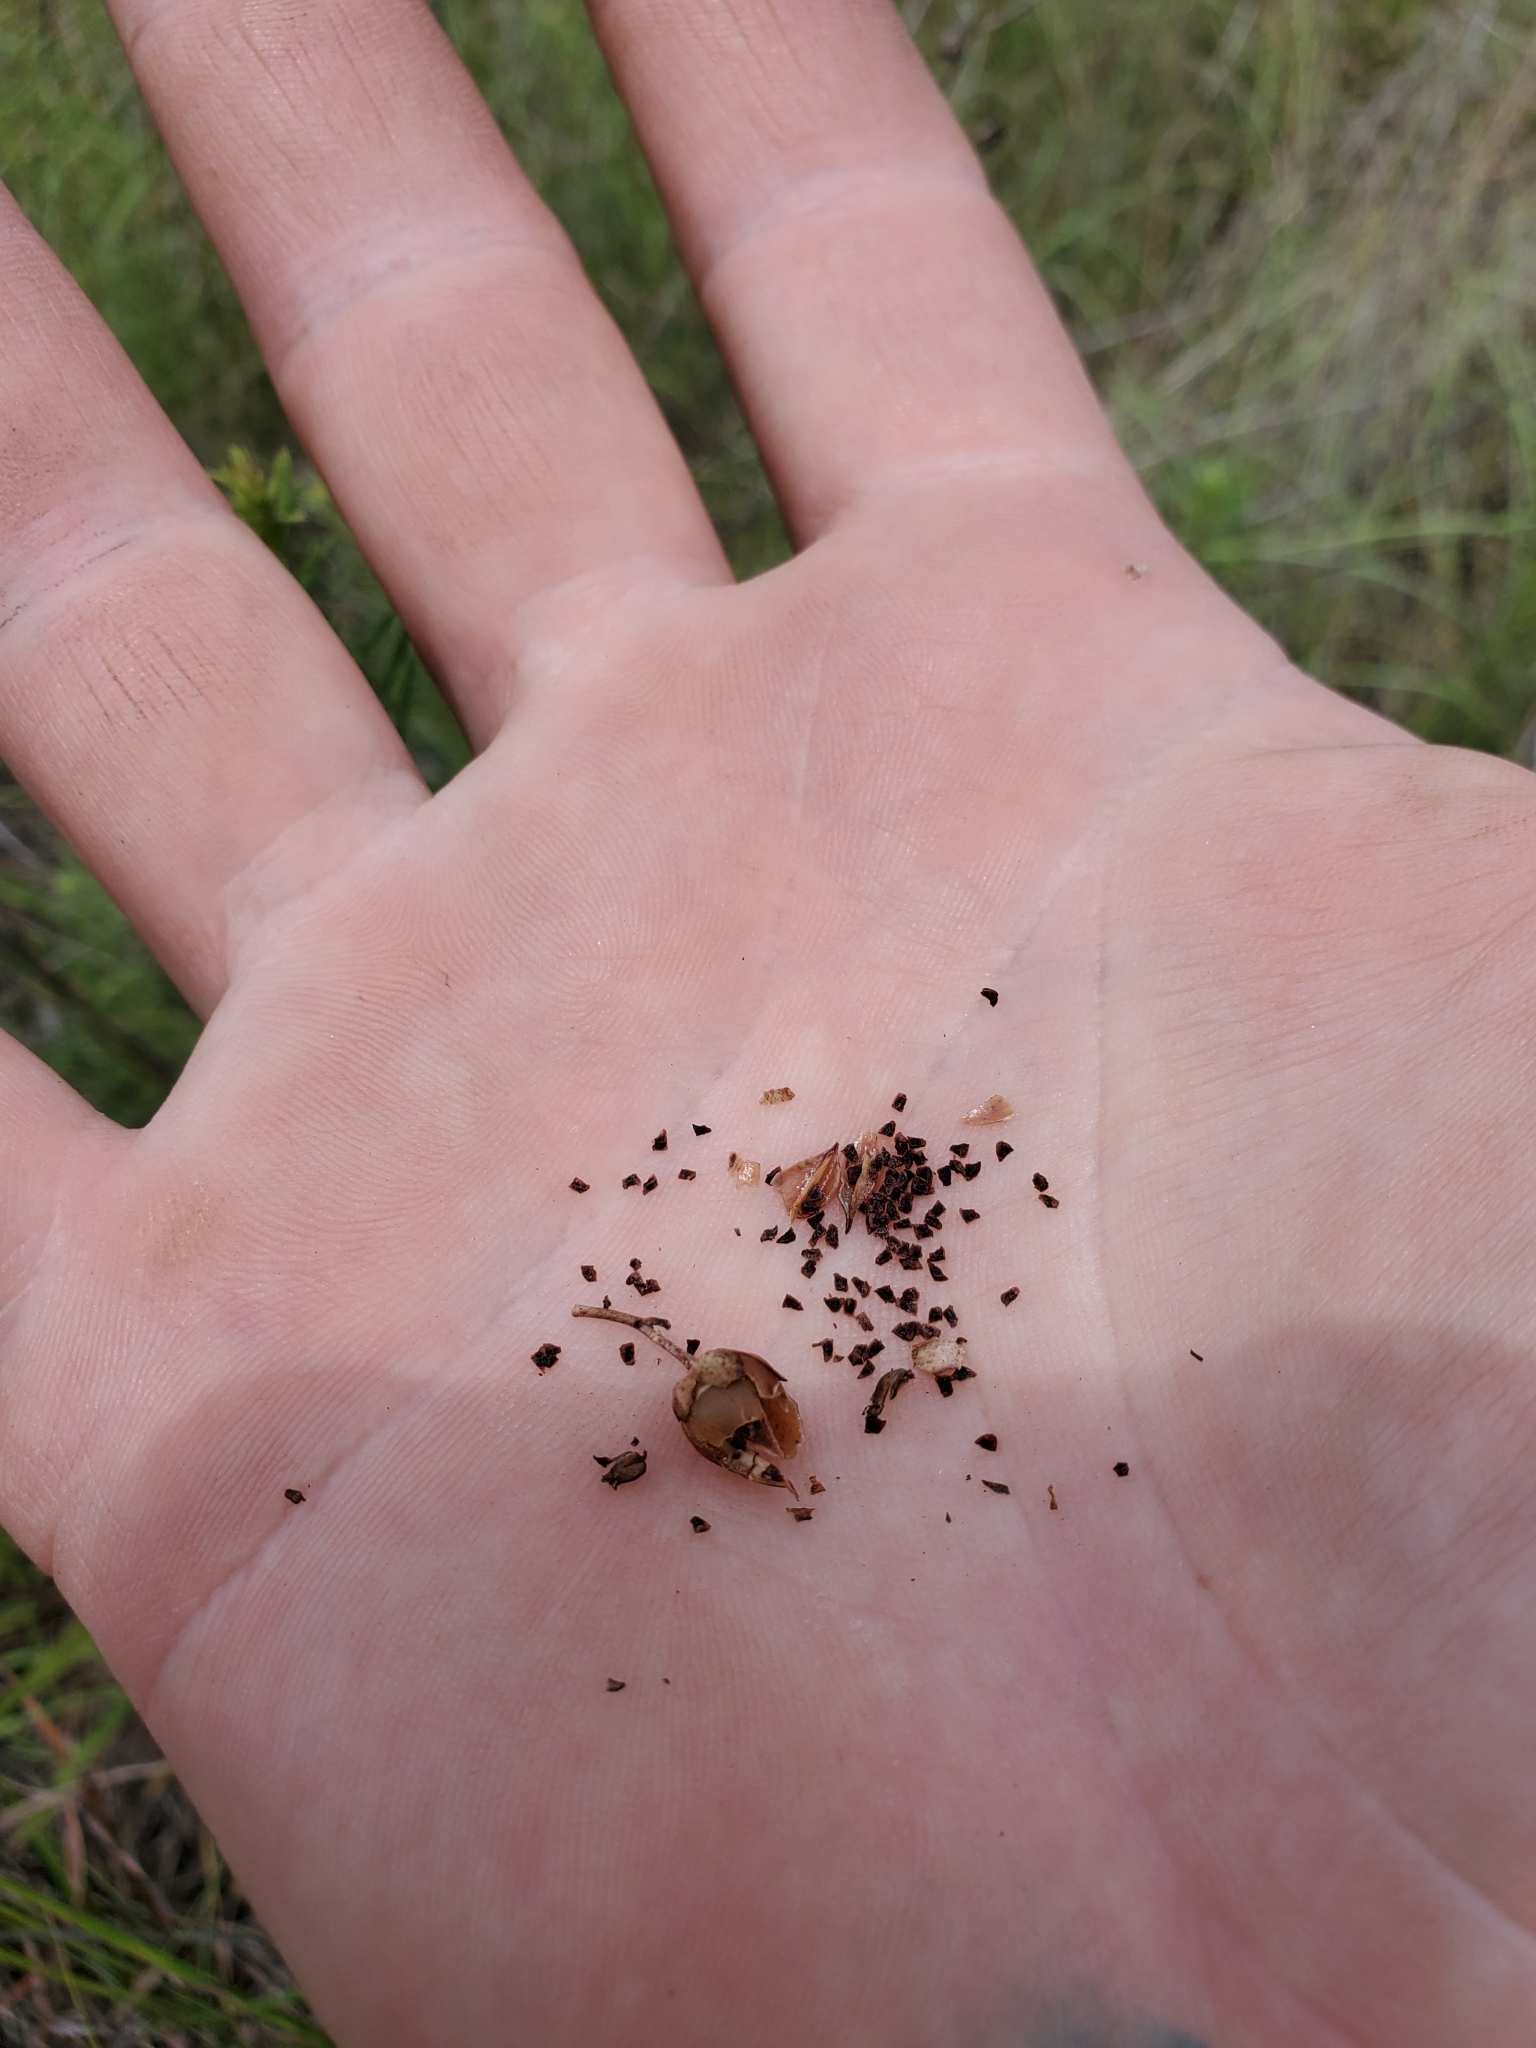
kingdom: Plantae
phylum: Tracheophyta
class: Magnoliopsida
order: Lamiales
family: Plantaginaceae
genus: Penstemon
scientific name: Penstemon laxiflorus
